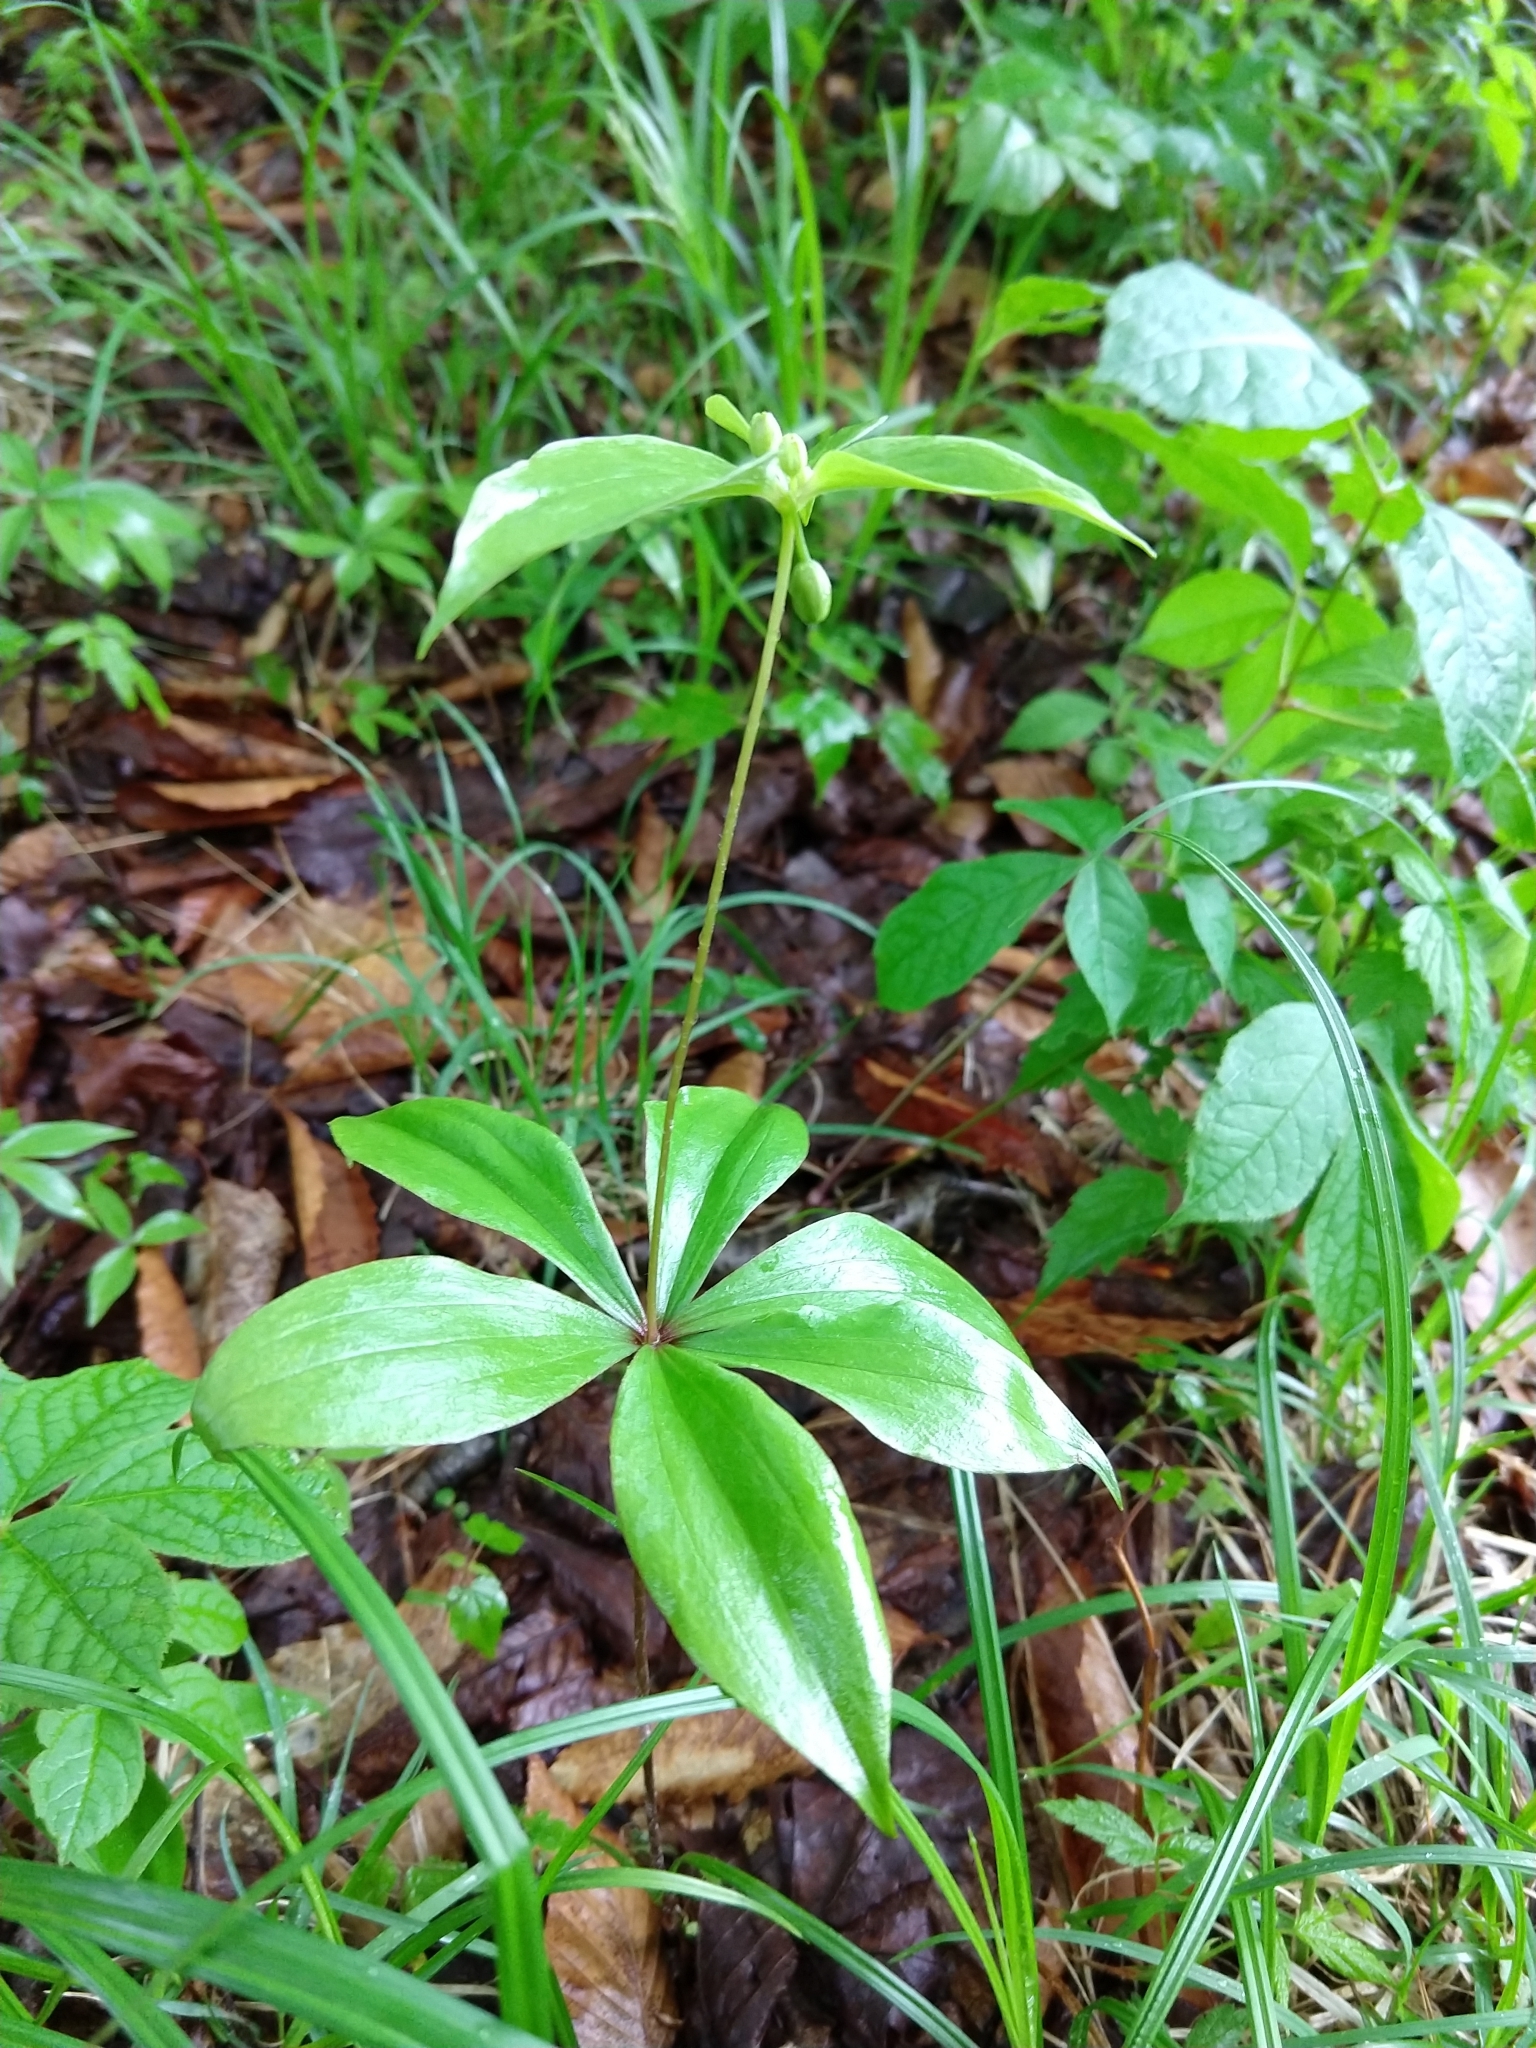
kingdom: Plantae
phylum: Tracheophyta
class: Liliopsida
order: Liliales
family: Liliaceae
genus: Medeola
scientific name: Medeola virginiana
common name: Indian cucumber-root
